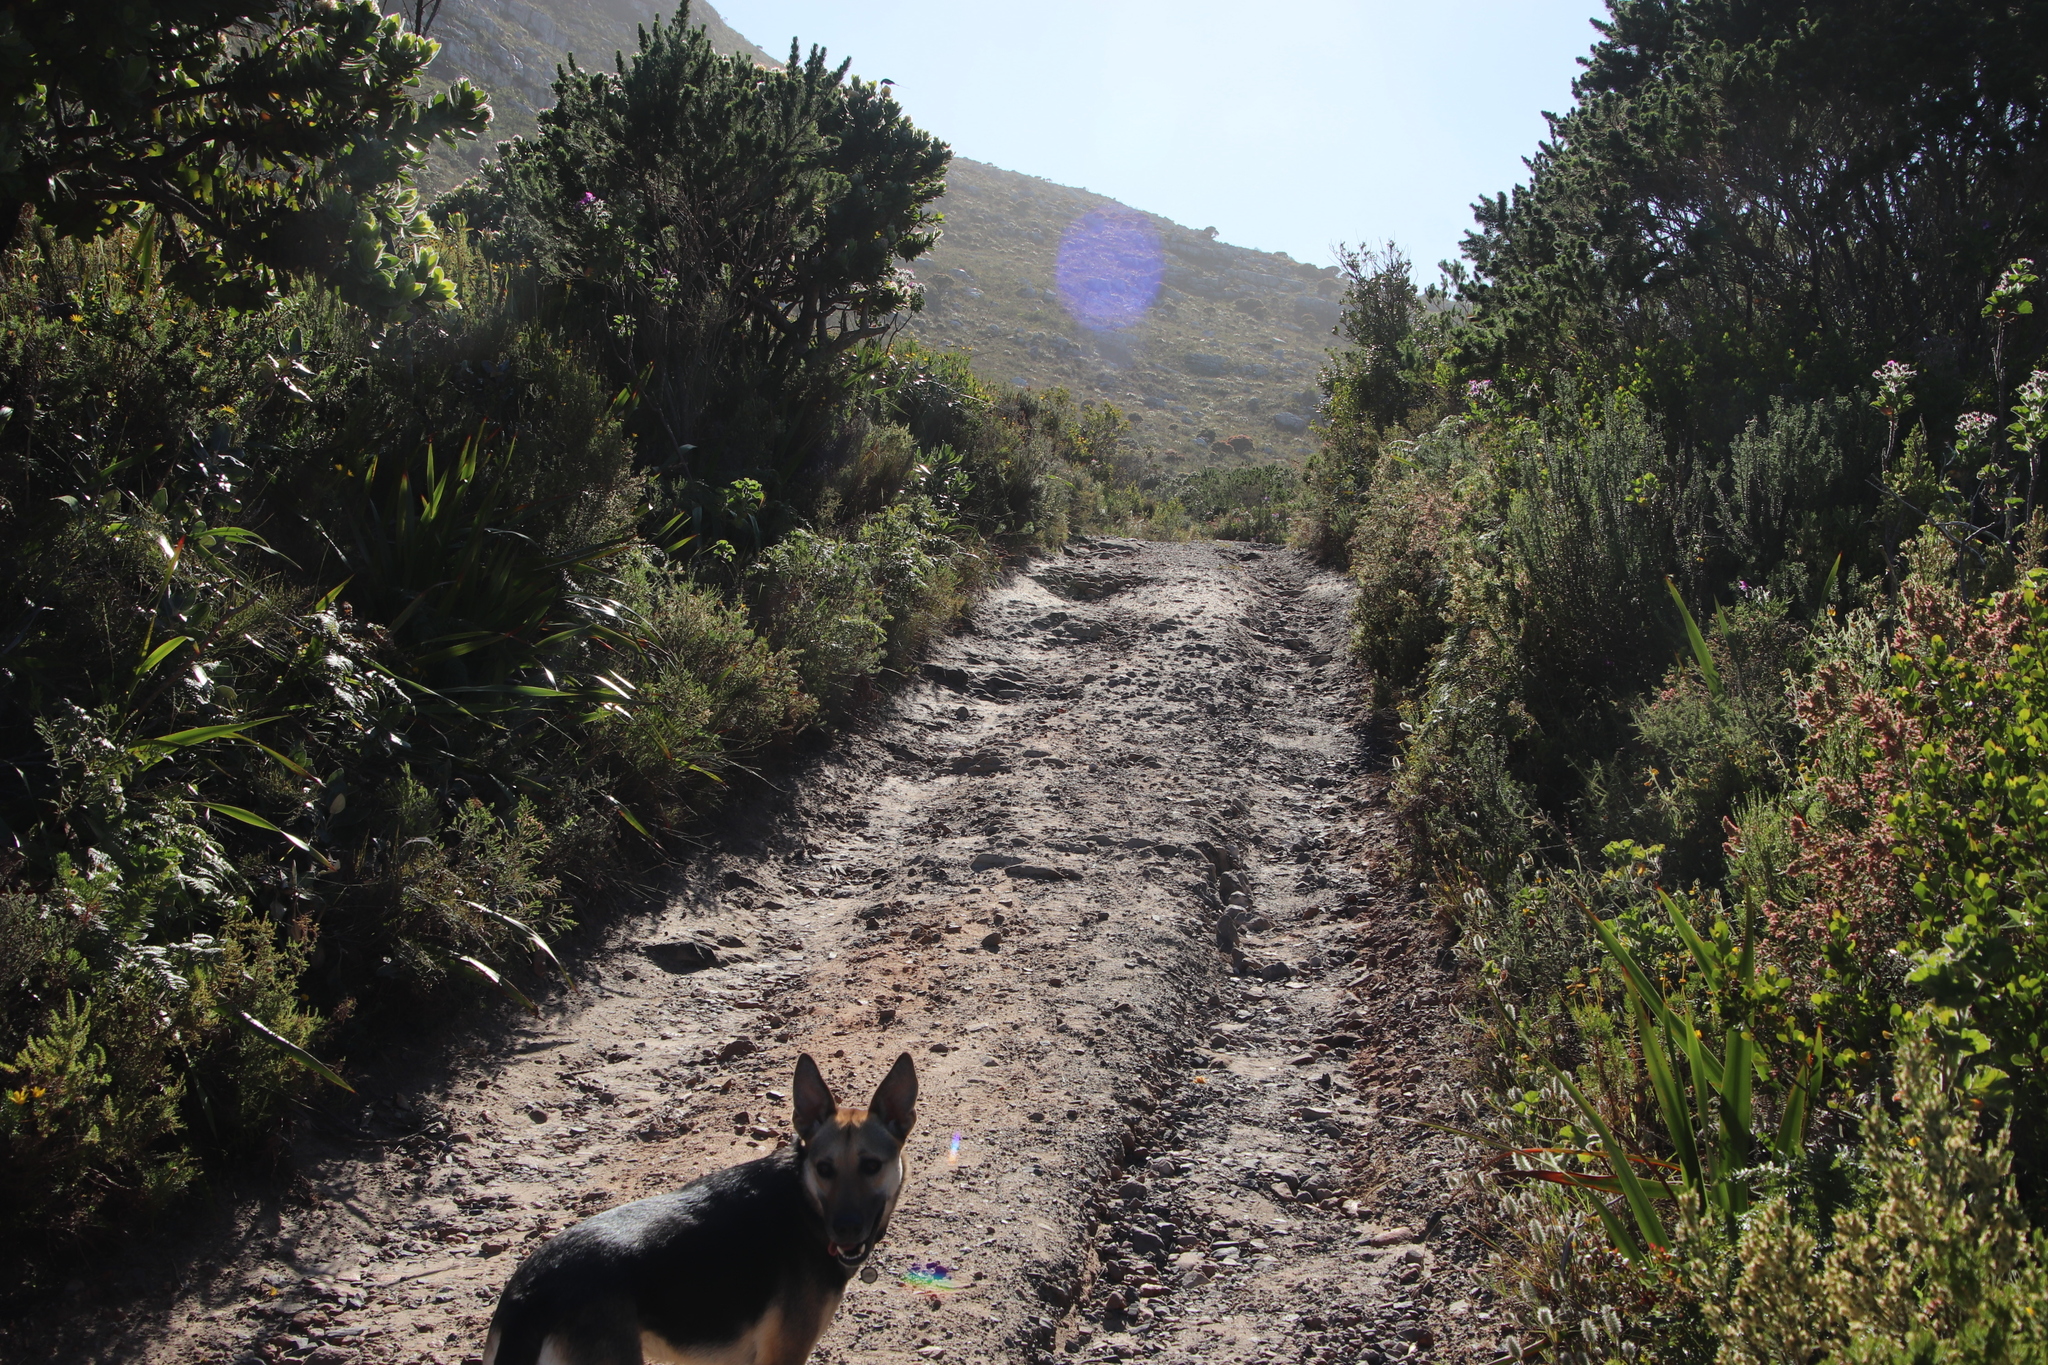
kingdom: Plantae
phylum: Tracheophyta
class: Magnoliopsida
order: Fabales
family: Fabaceae
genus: Psoralea
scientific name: Psoralea pinnata
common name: African scurfpea
